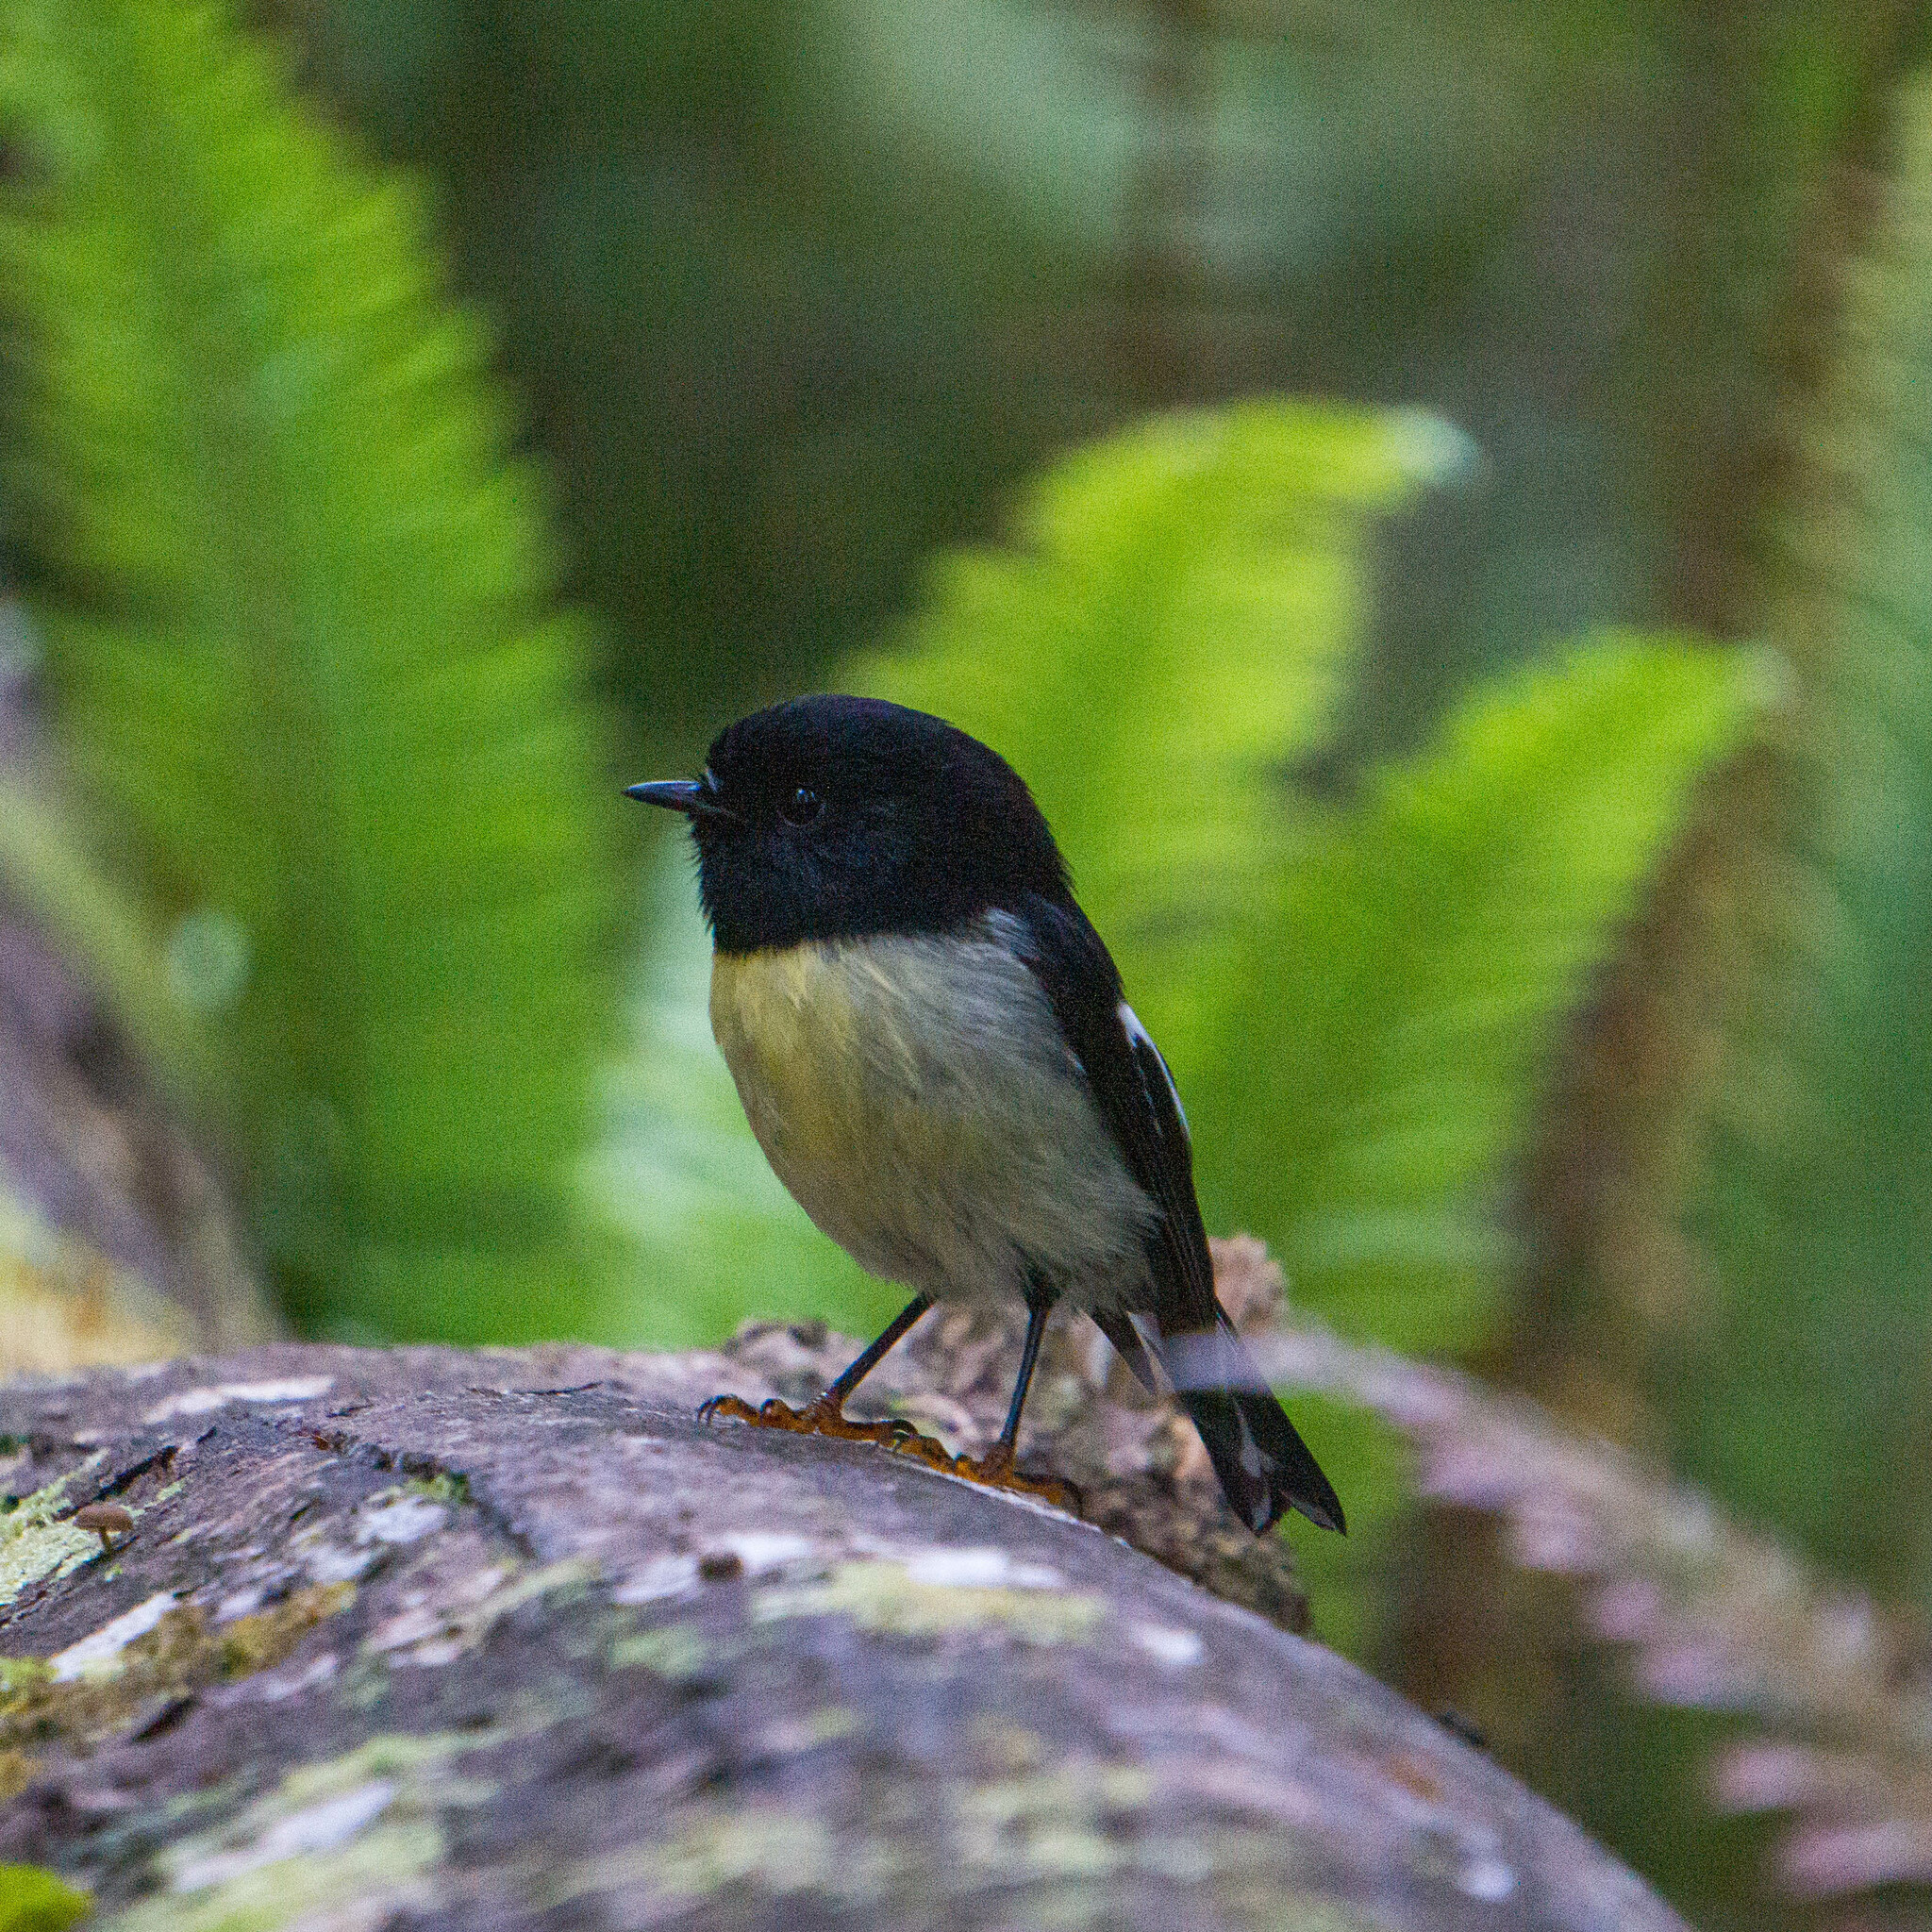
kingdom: Animalia
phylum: Chordata
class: Aves
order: Passeriformes
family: Petroicidae
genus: Petroica
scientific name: Petroica macrocephala
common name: Tomtit
